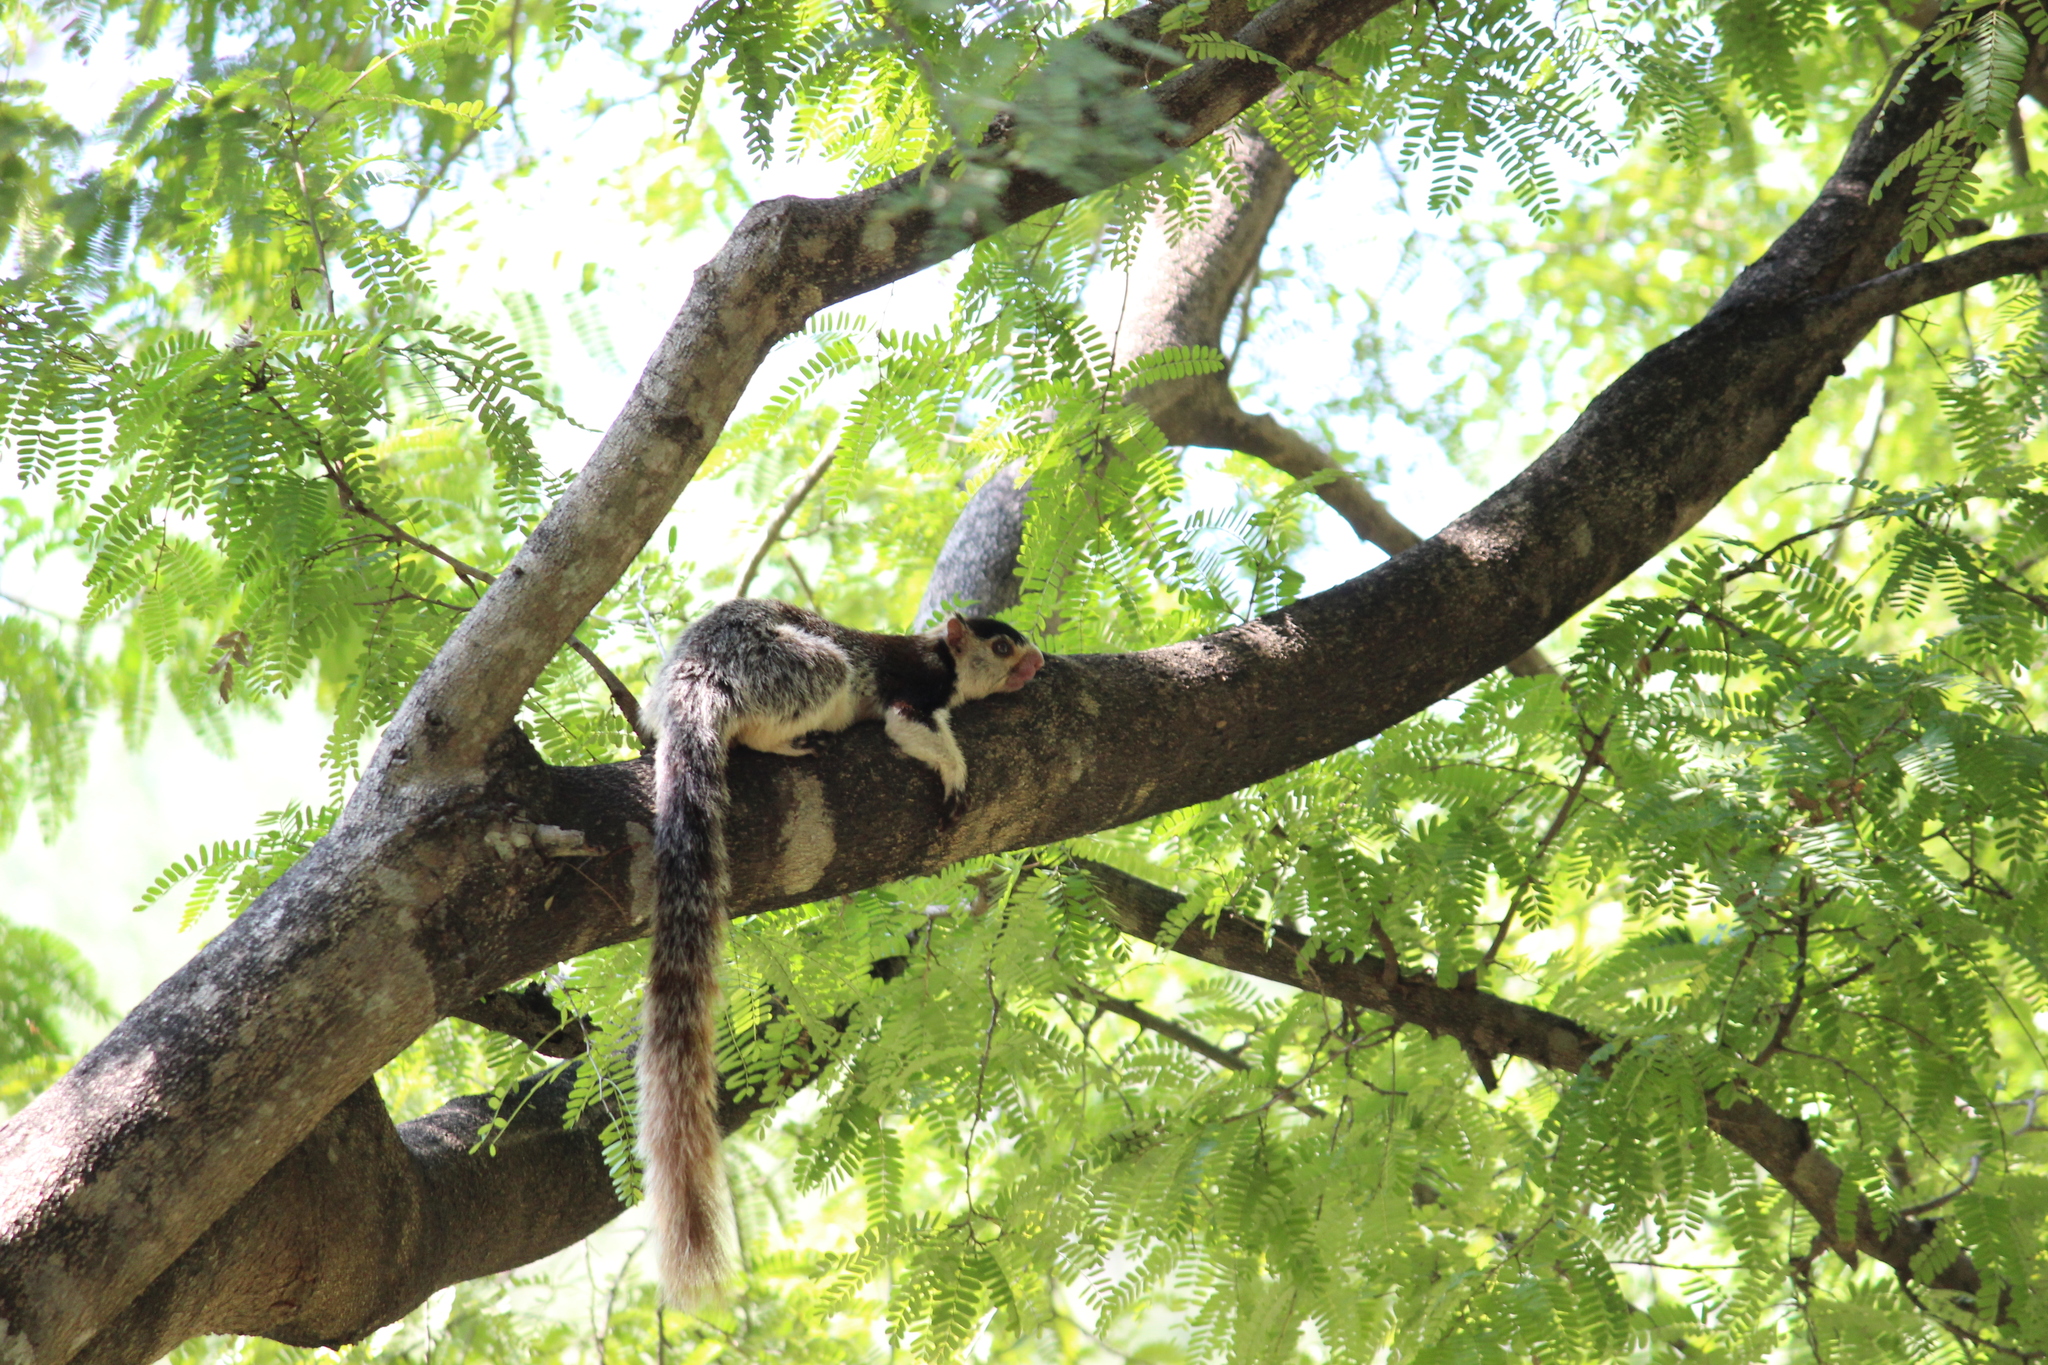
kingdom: Animalia
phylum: Chordata
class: Mammalia
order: Rodentia
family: Sciuridae
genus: Ratufa
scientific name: Ratufa macroura
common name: Sri lankan giant squirrel
